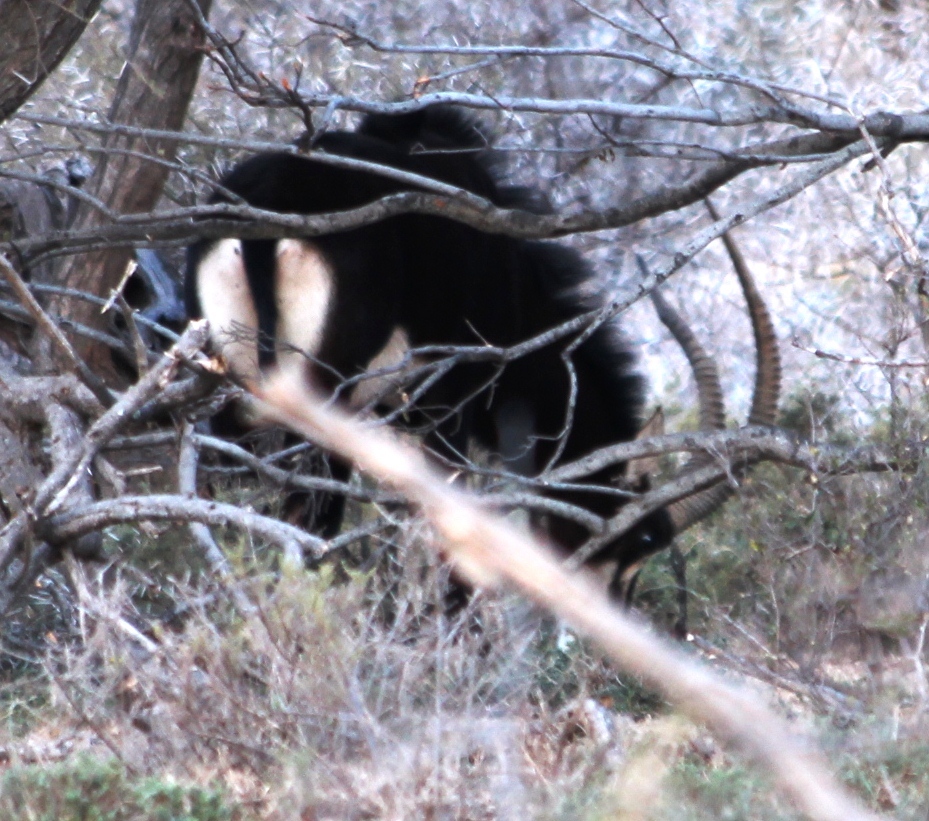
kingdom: Animalia
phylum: Chordata
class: Mammalia
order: Artiodactyla
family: Bovidae
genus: Hippotragus
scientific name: Hippotragus niger
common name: Sable antelope
